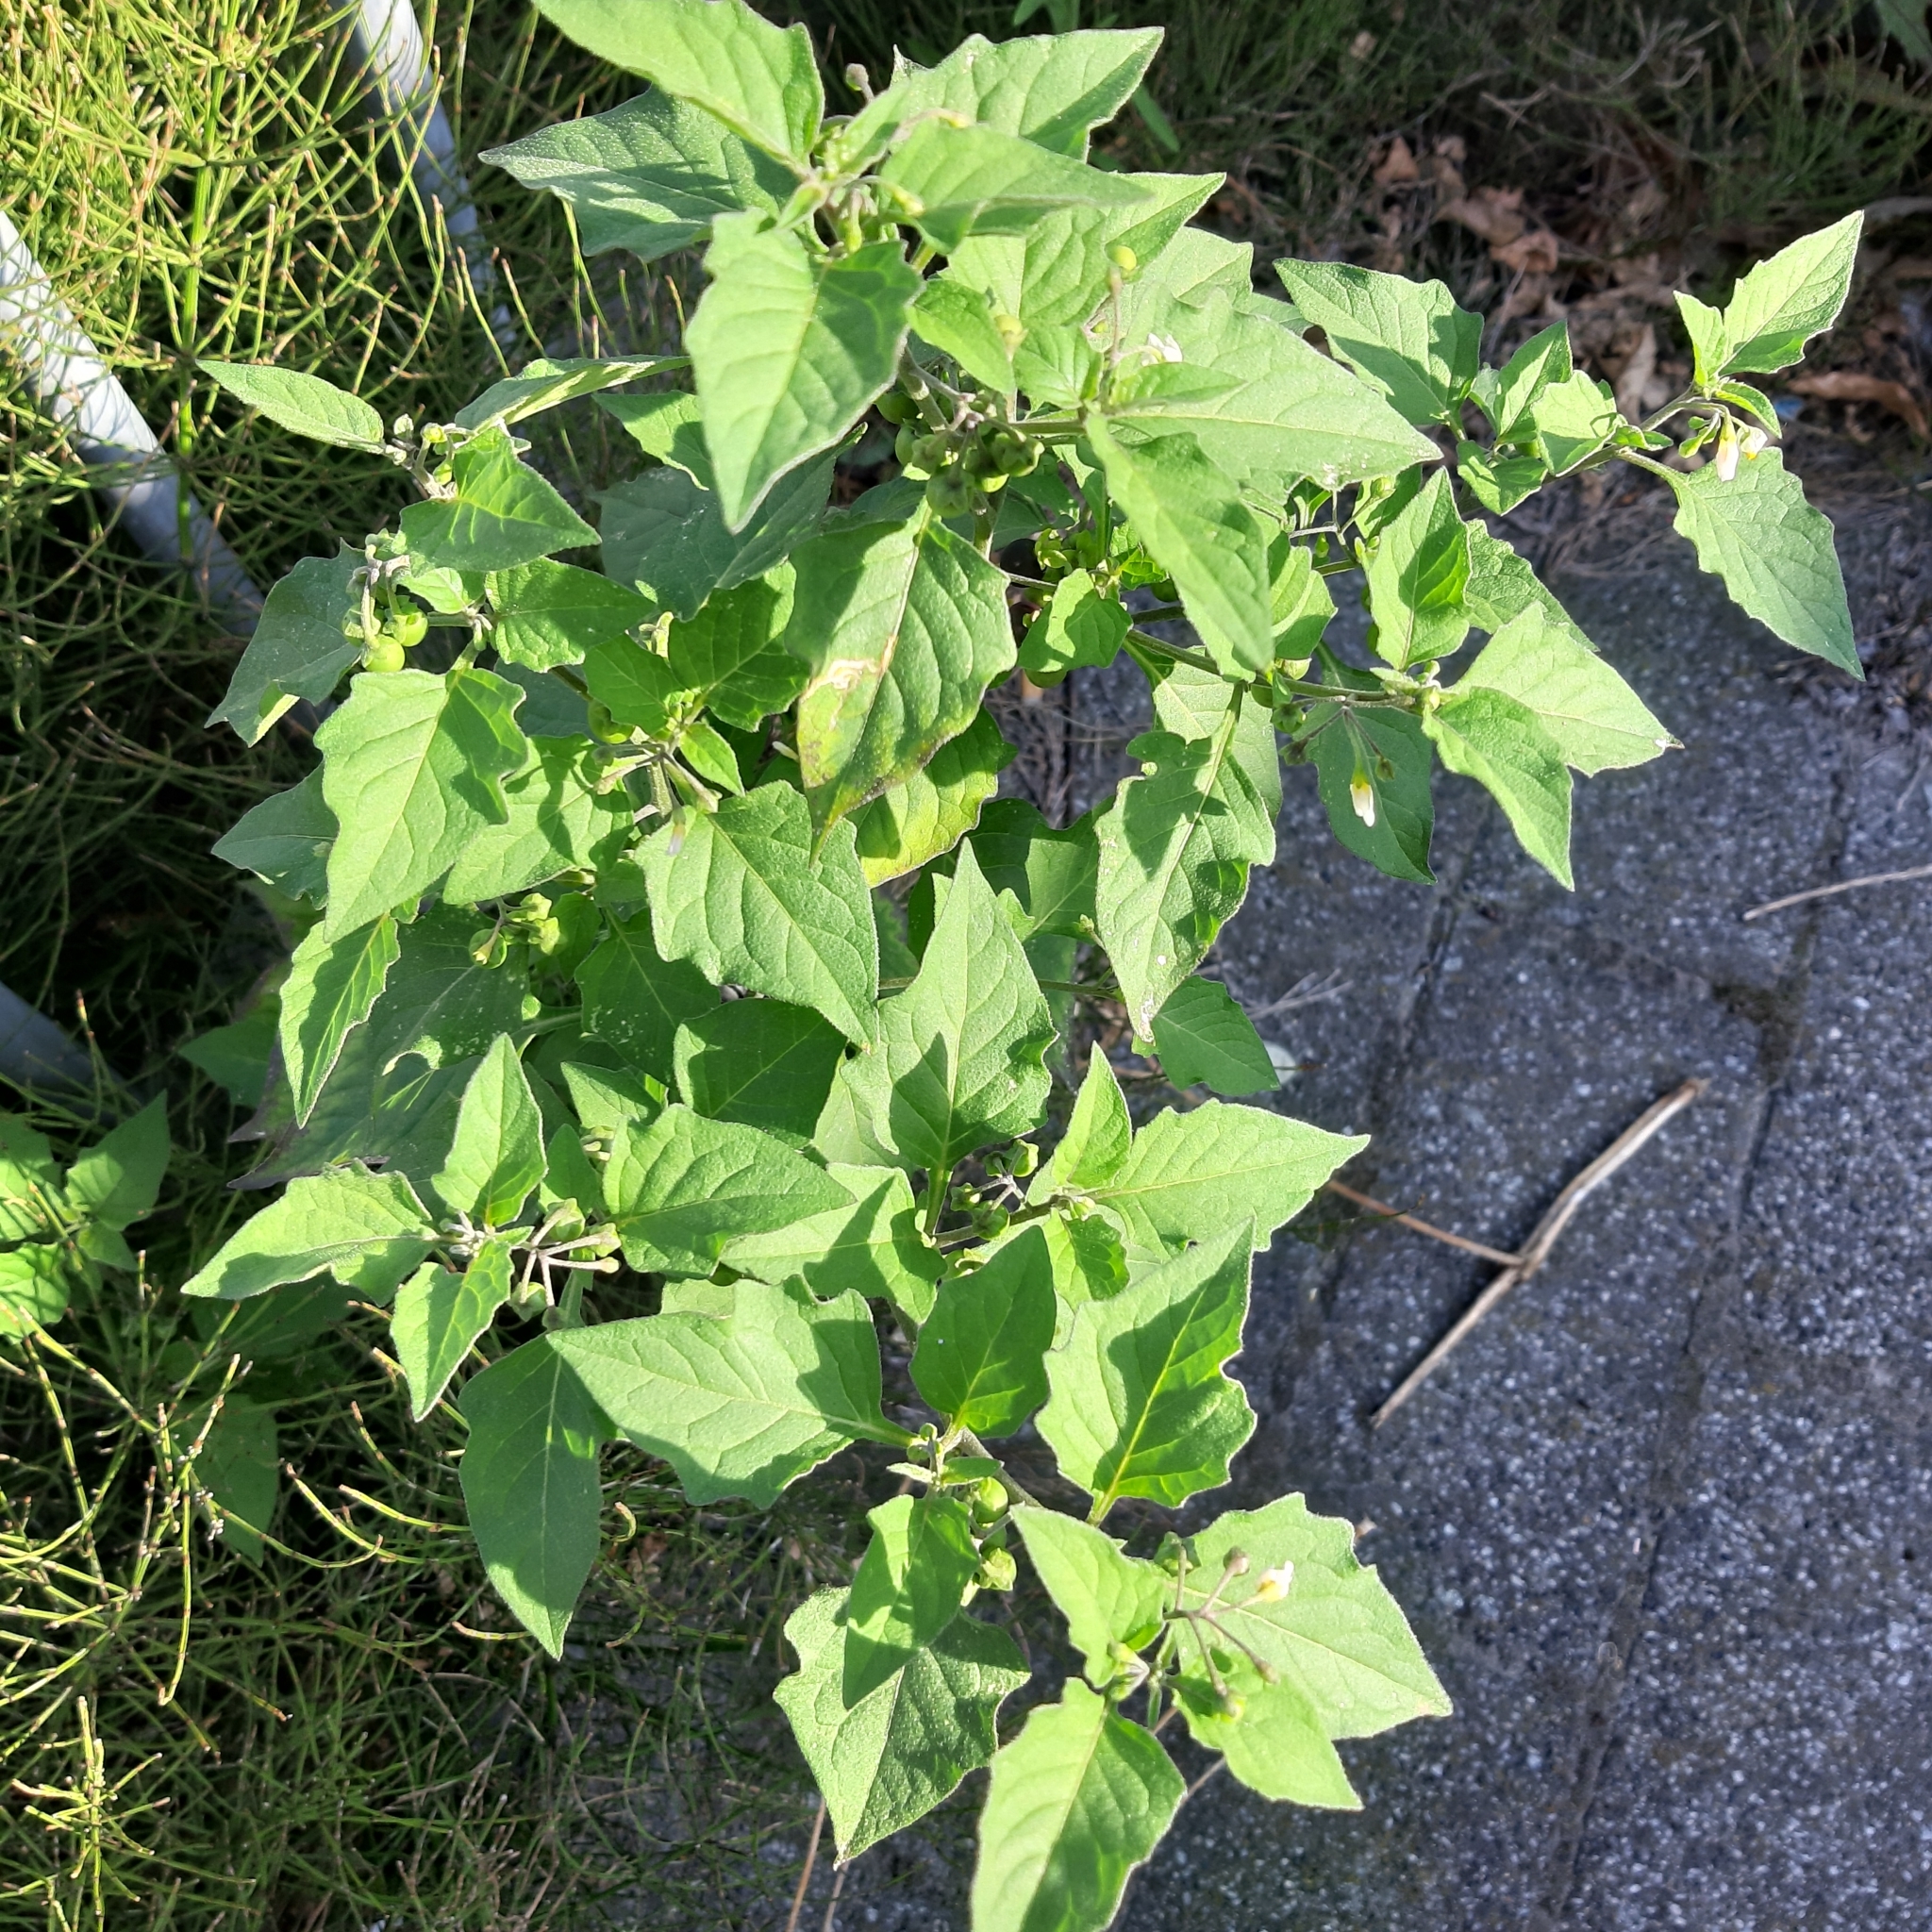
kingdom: Plantae
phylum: Tracheophyta
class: Magnoliopsida
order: Solanales
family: Solanaceae
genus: Solanum
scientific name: Solanum nigrum
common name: Black nightshade
